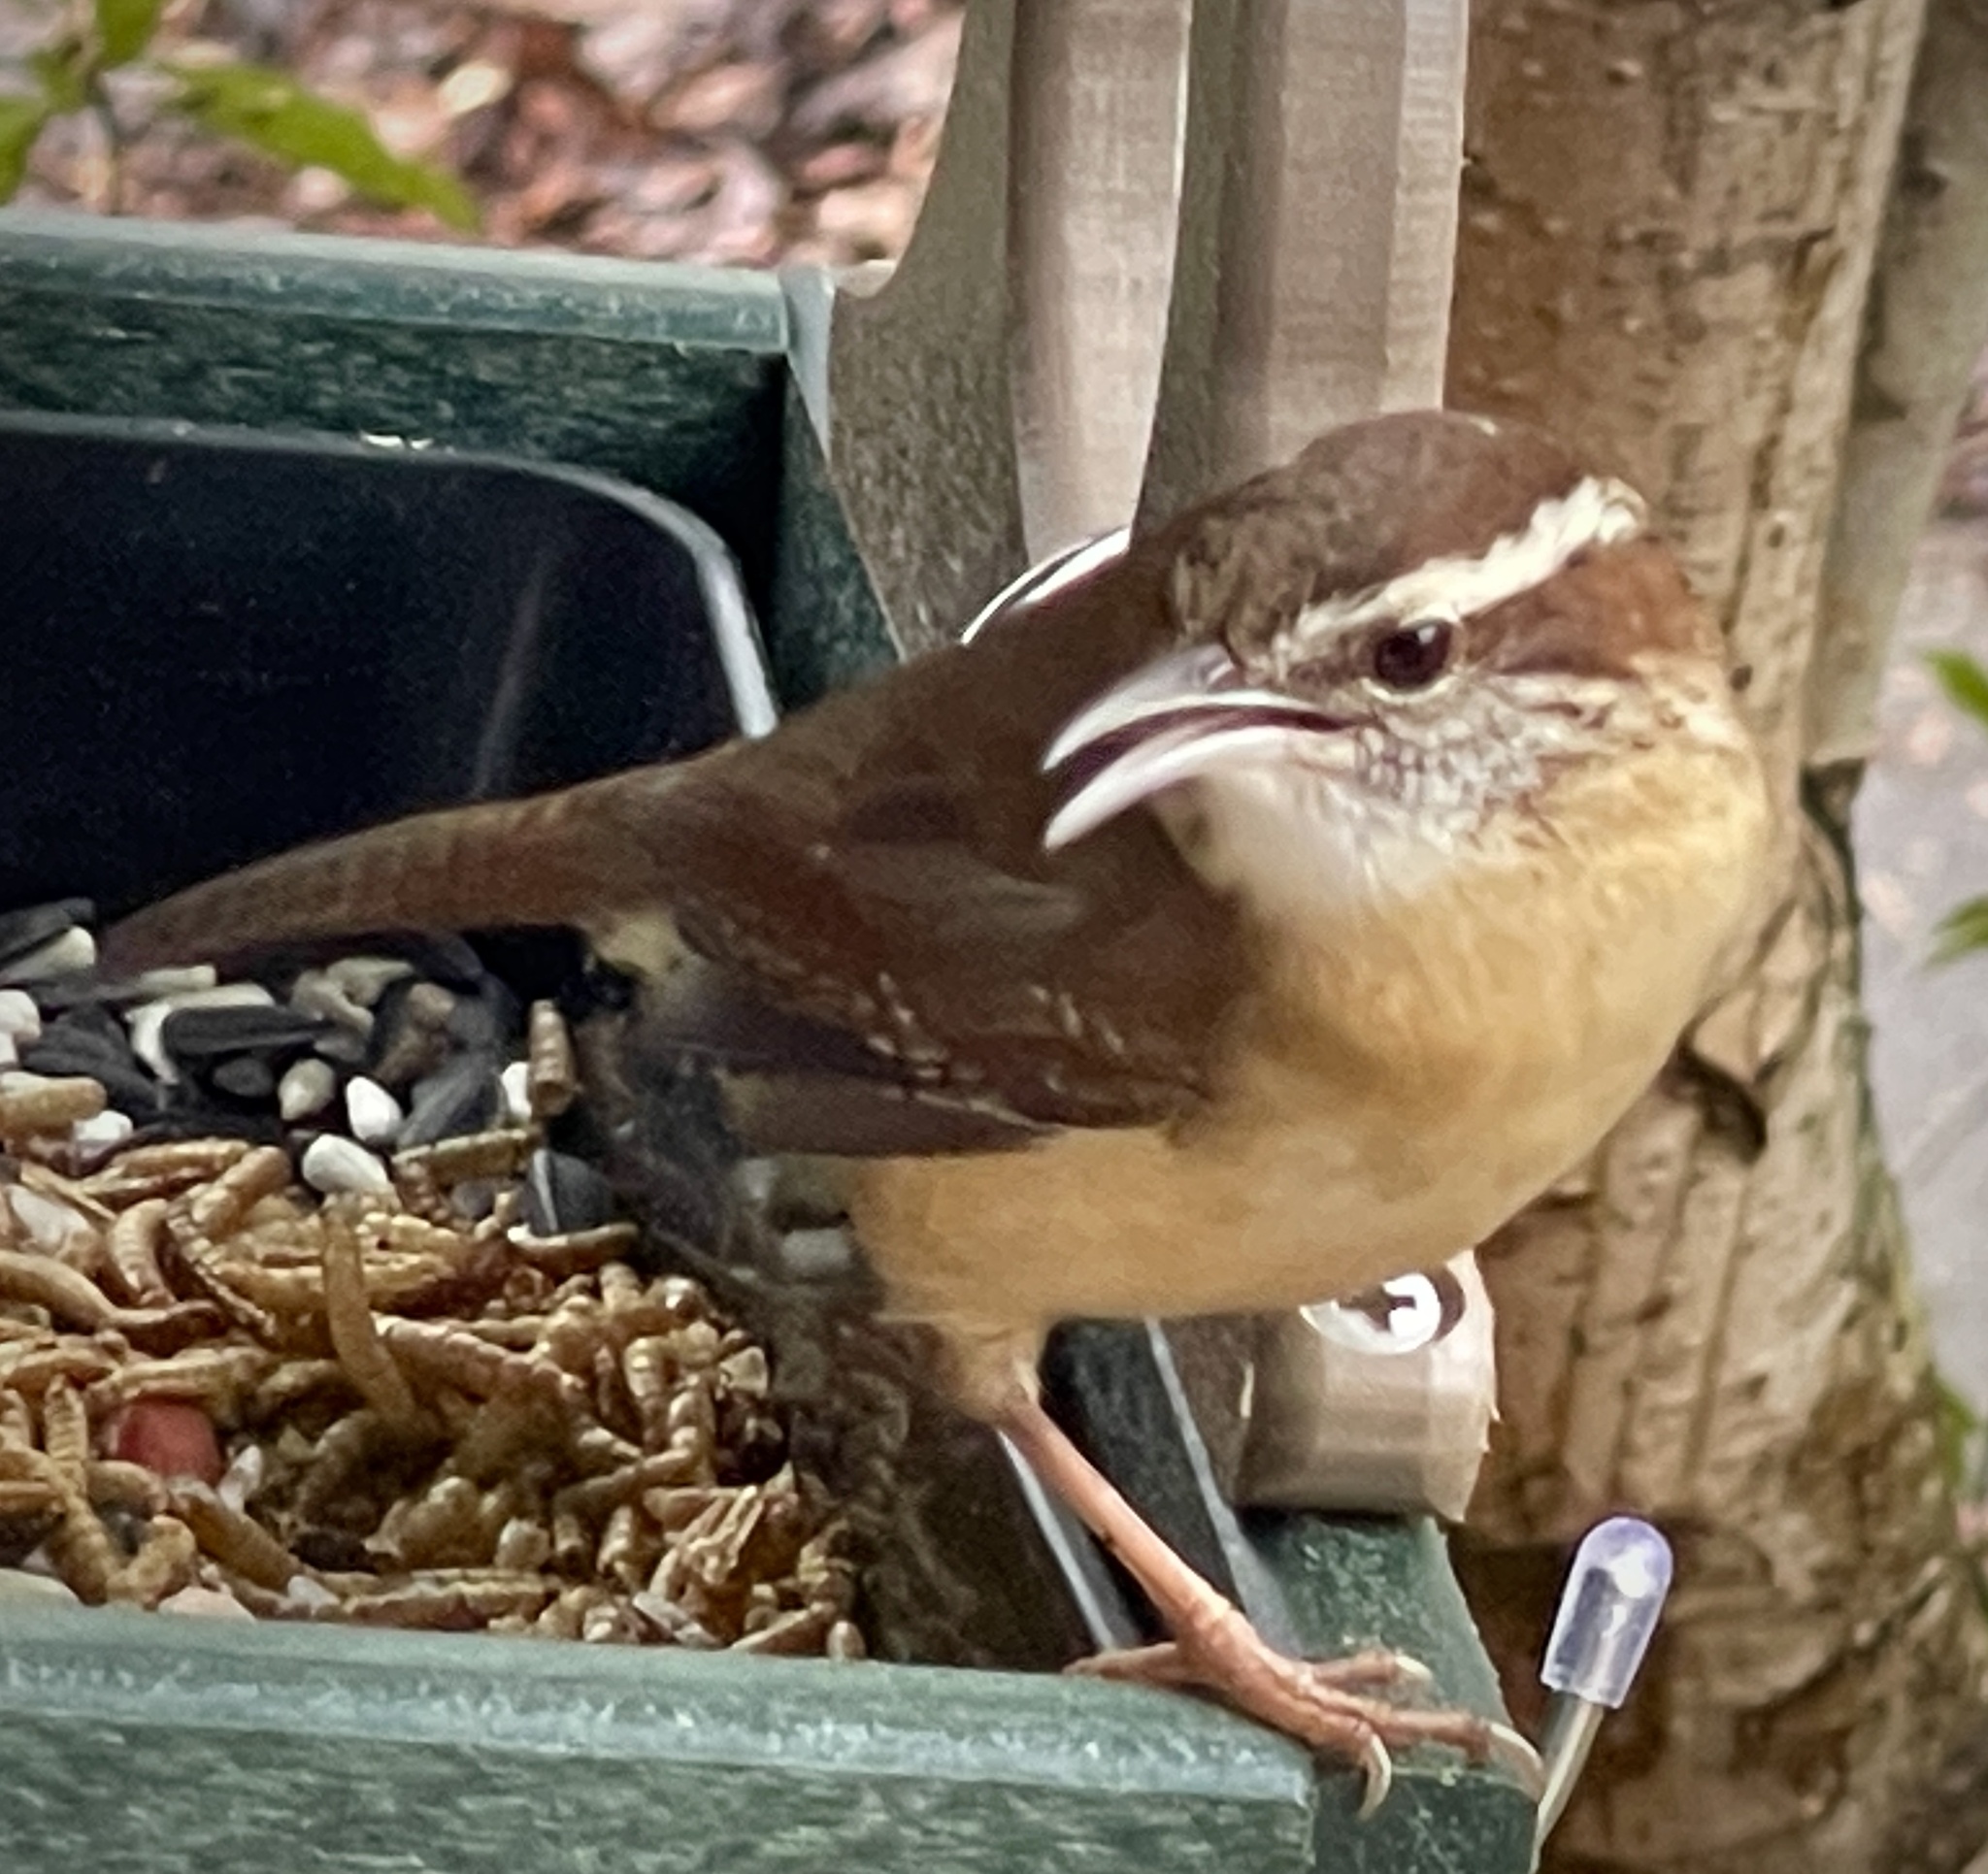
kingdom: Animalia
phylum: Chordata
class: Aves
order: Passeriformes
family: Troglodytidae
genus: Thryothorus
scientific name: Thryothorus ludovicianus
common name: Carolina wren
